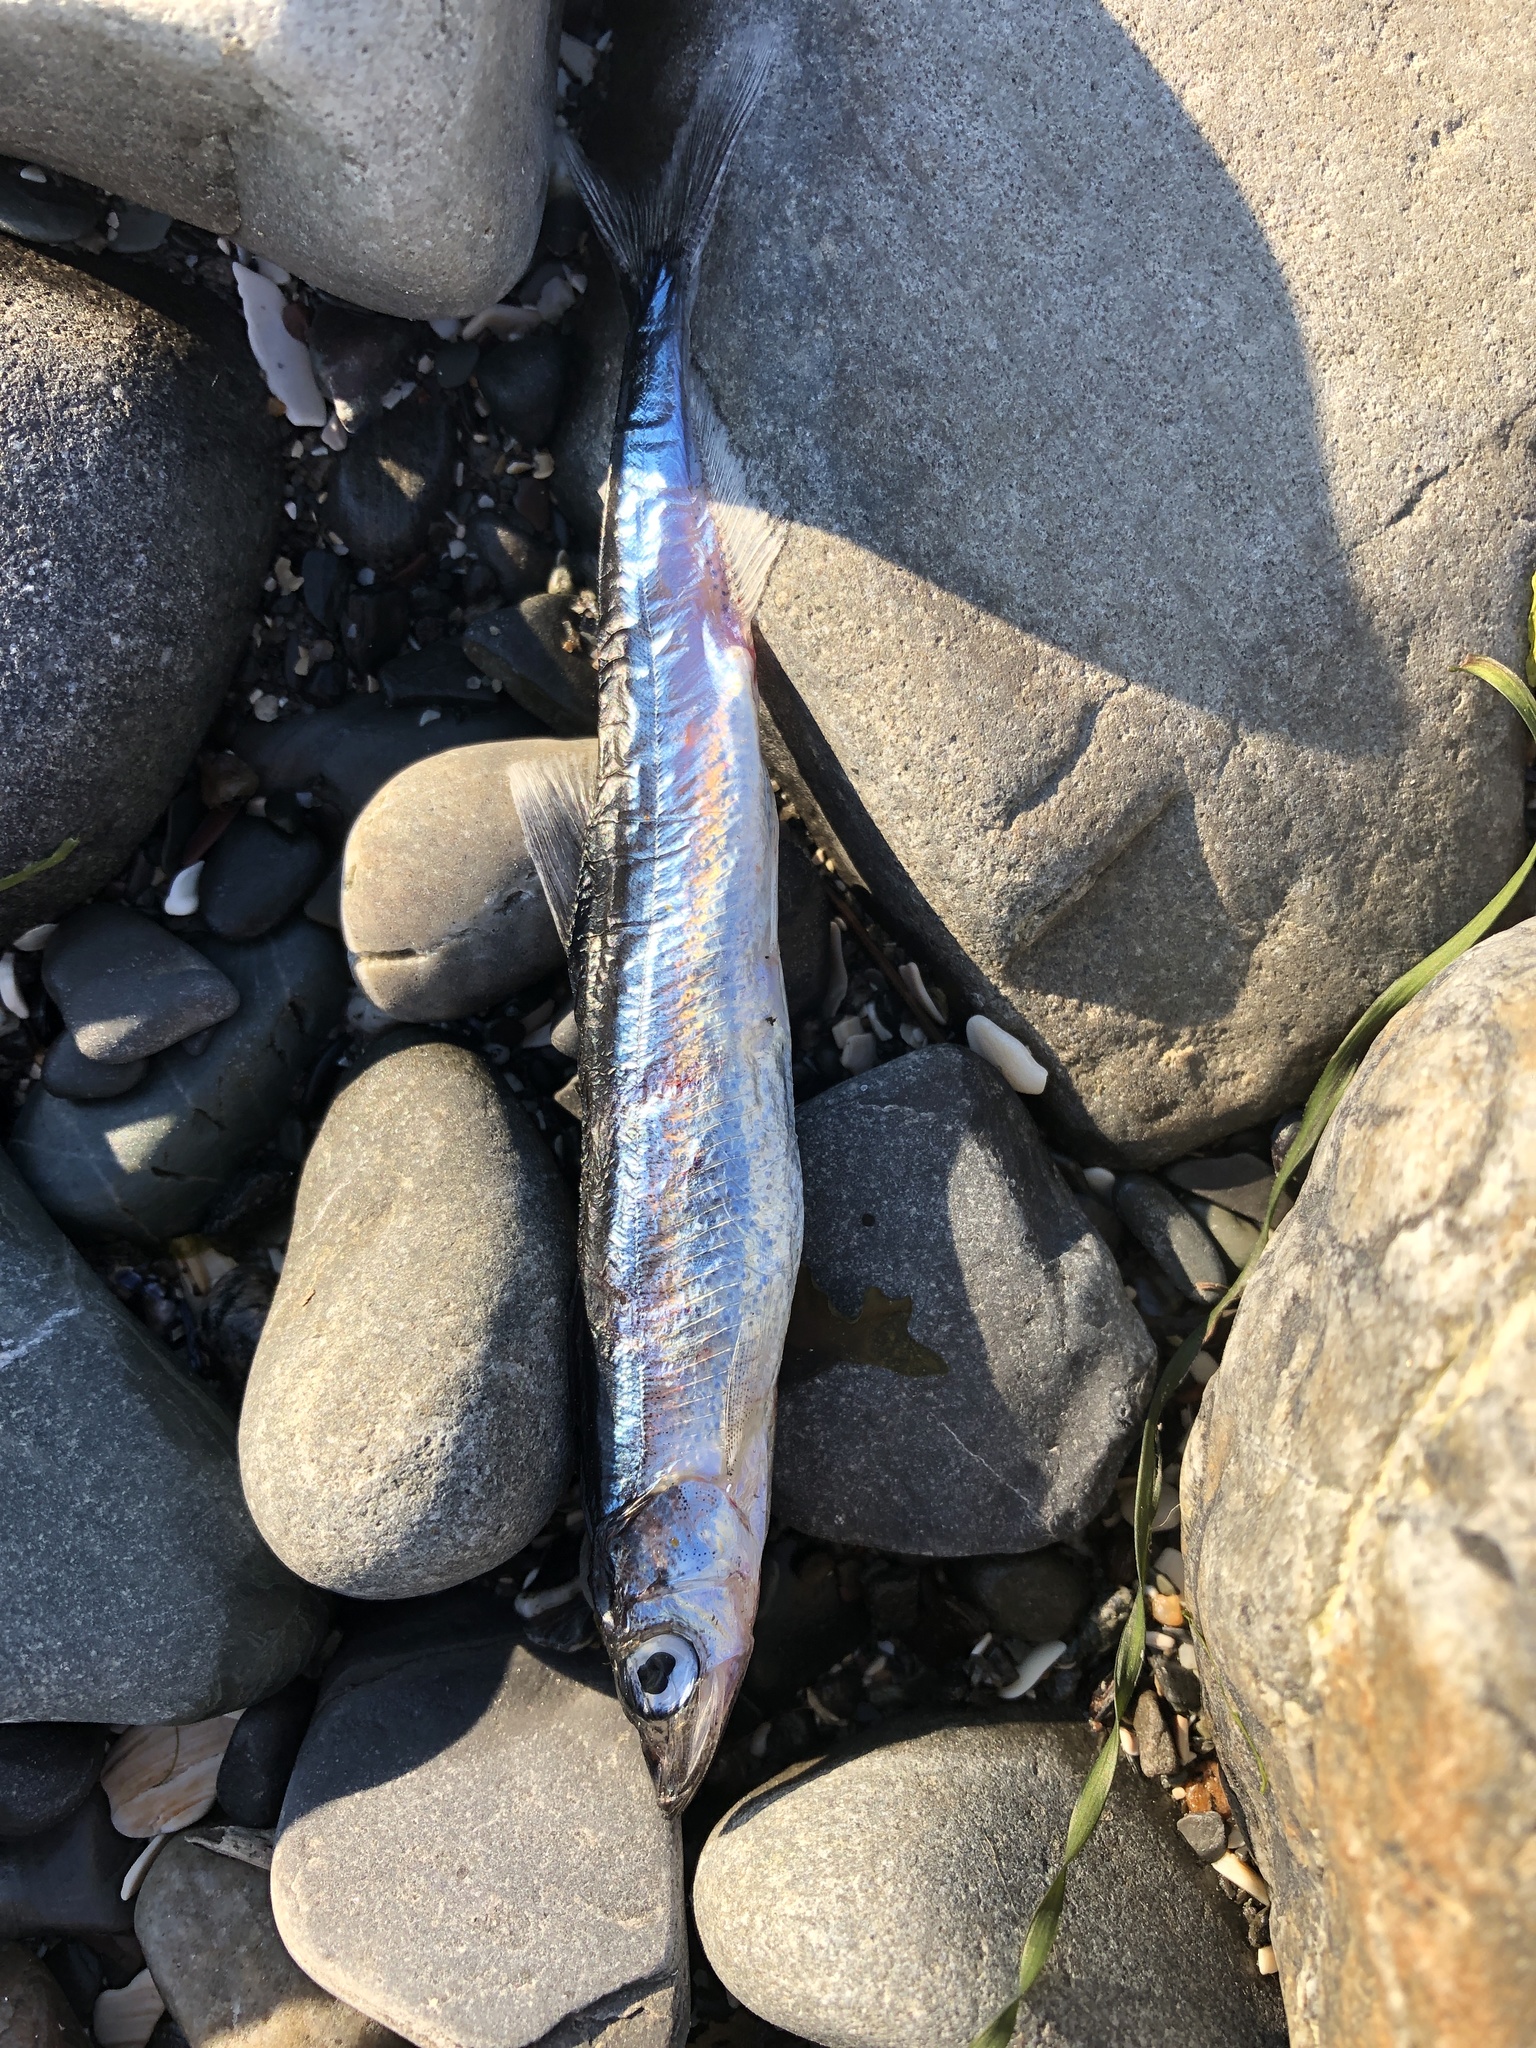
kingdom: Animalia
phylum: Chordata
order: Osmeriformes
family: Osmeridae
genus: Mallotus
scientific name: Mallotus villosus
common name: Capelin
